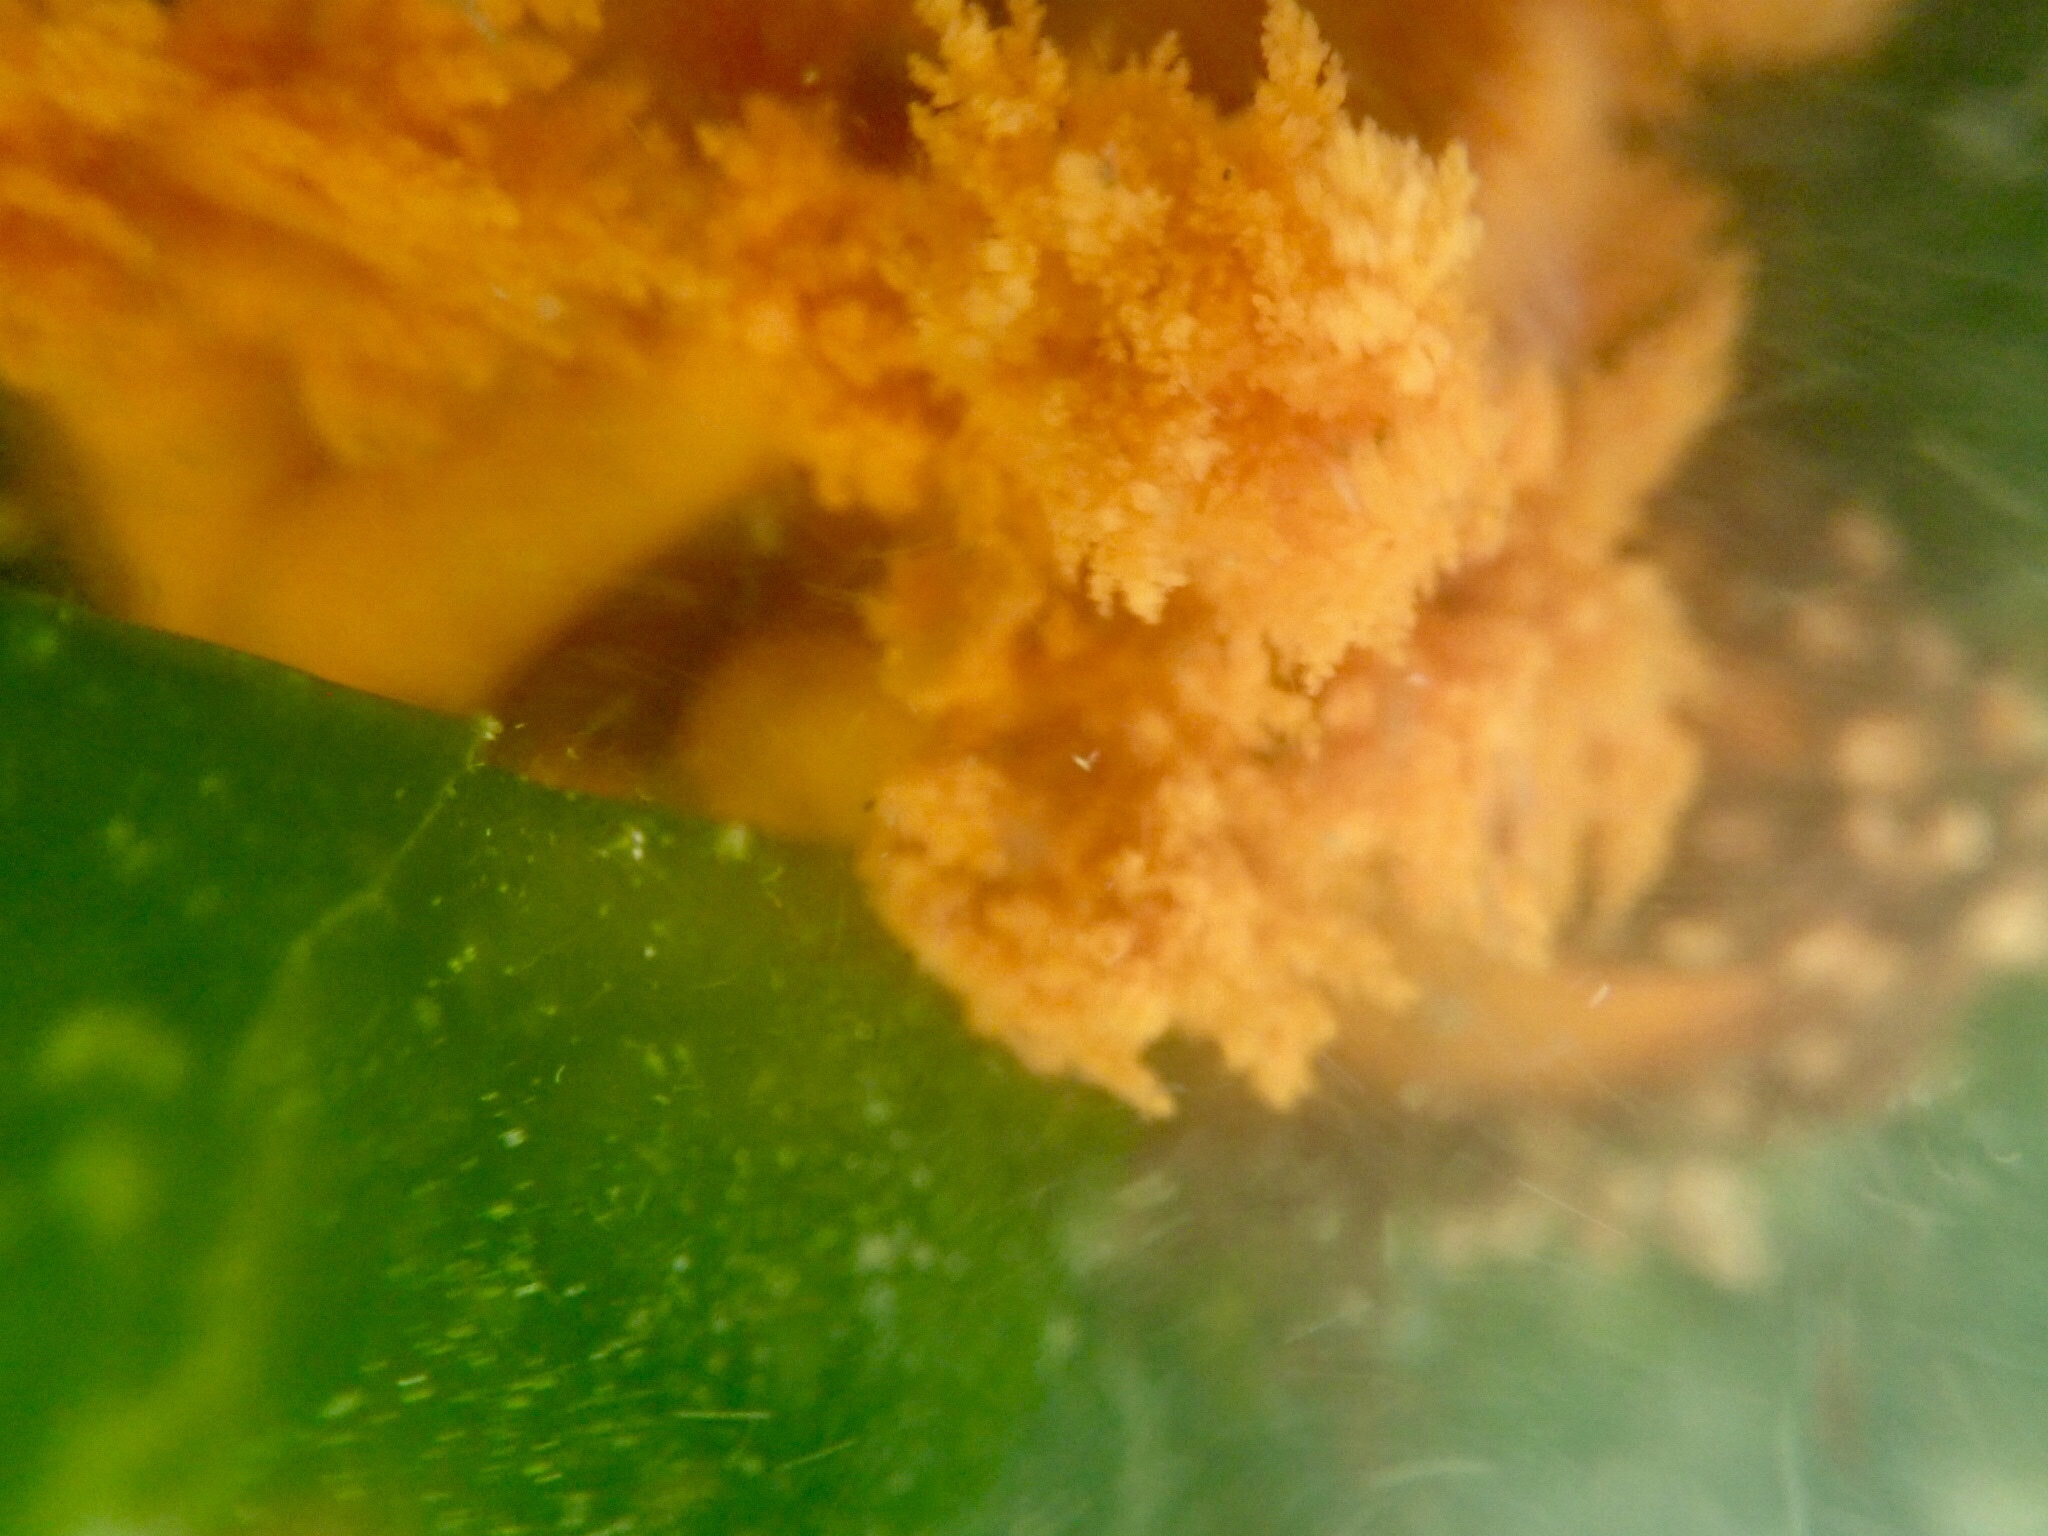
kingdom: Animalia
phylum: Echinodermata
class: Holothuroidea
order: Dendrochirotida
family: Cucumariidae
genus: Cucumaria
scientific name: Cucumaria miniata
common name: Orange sea cucumber
